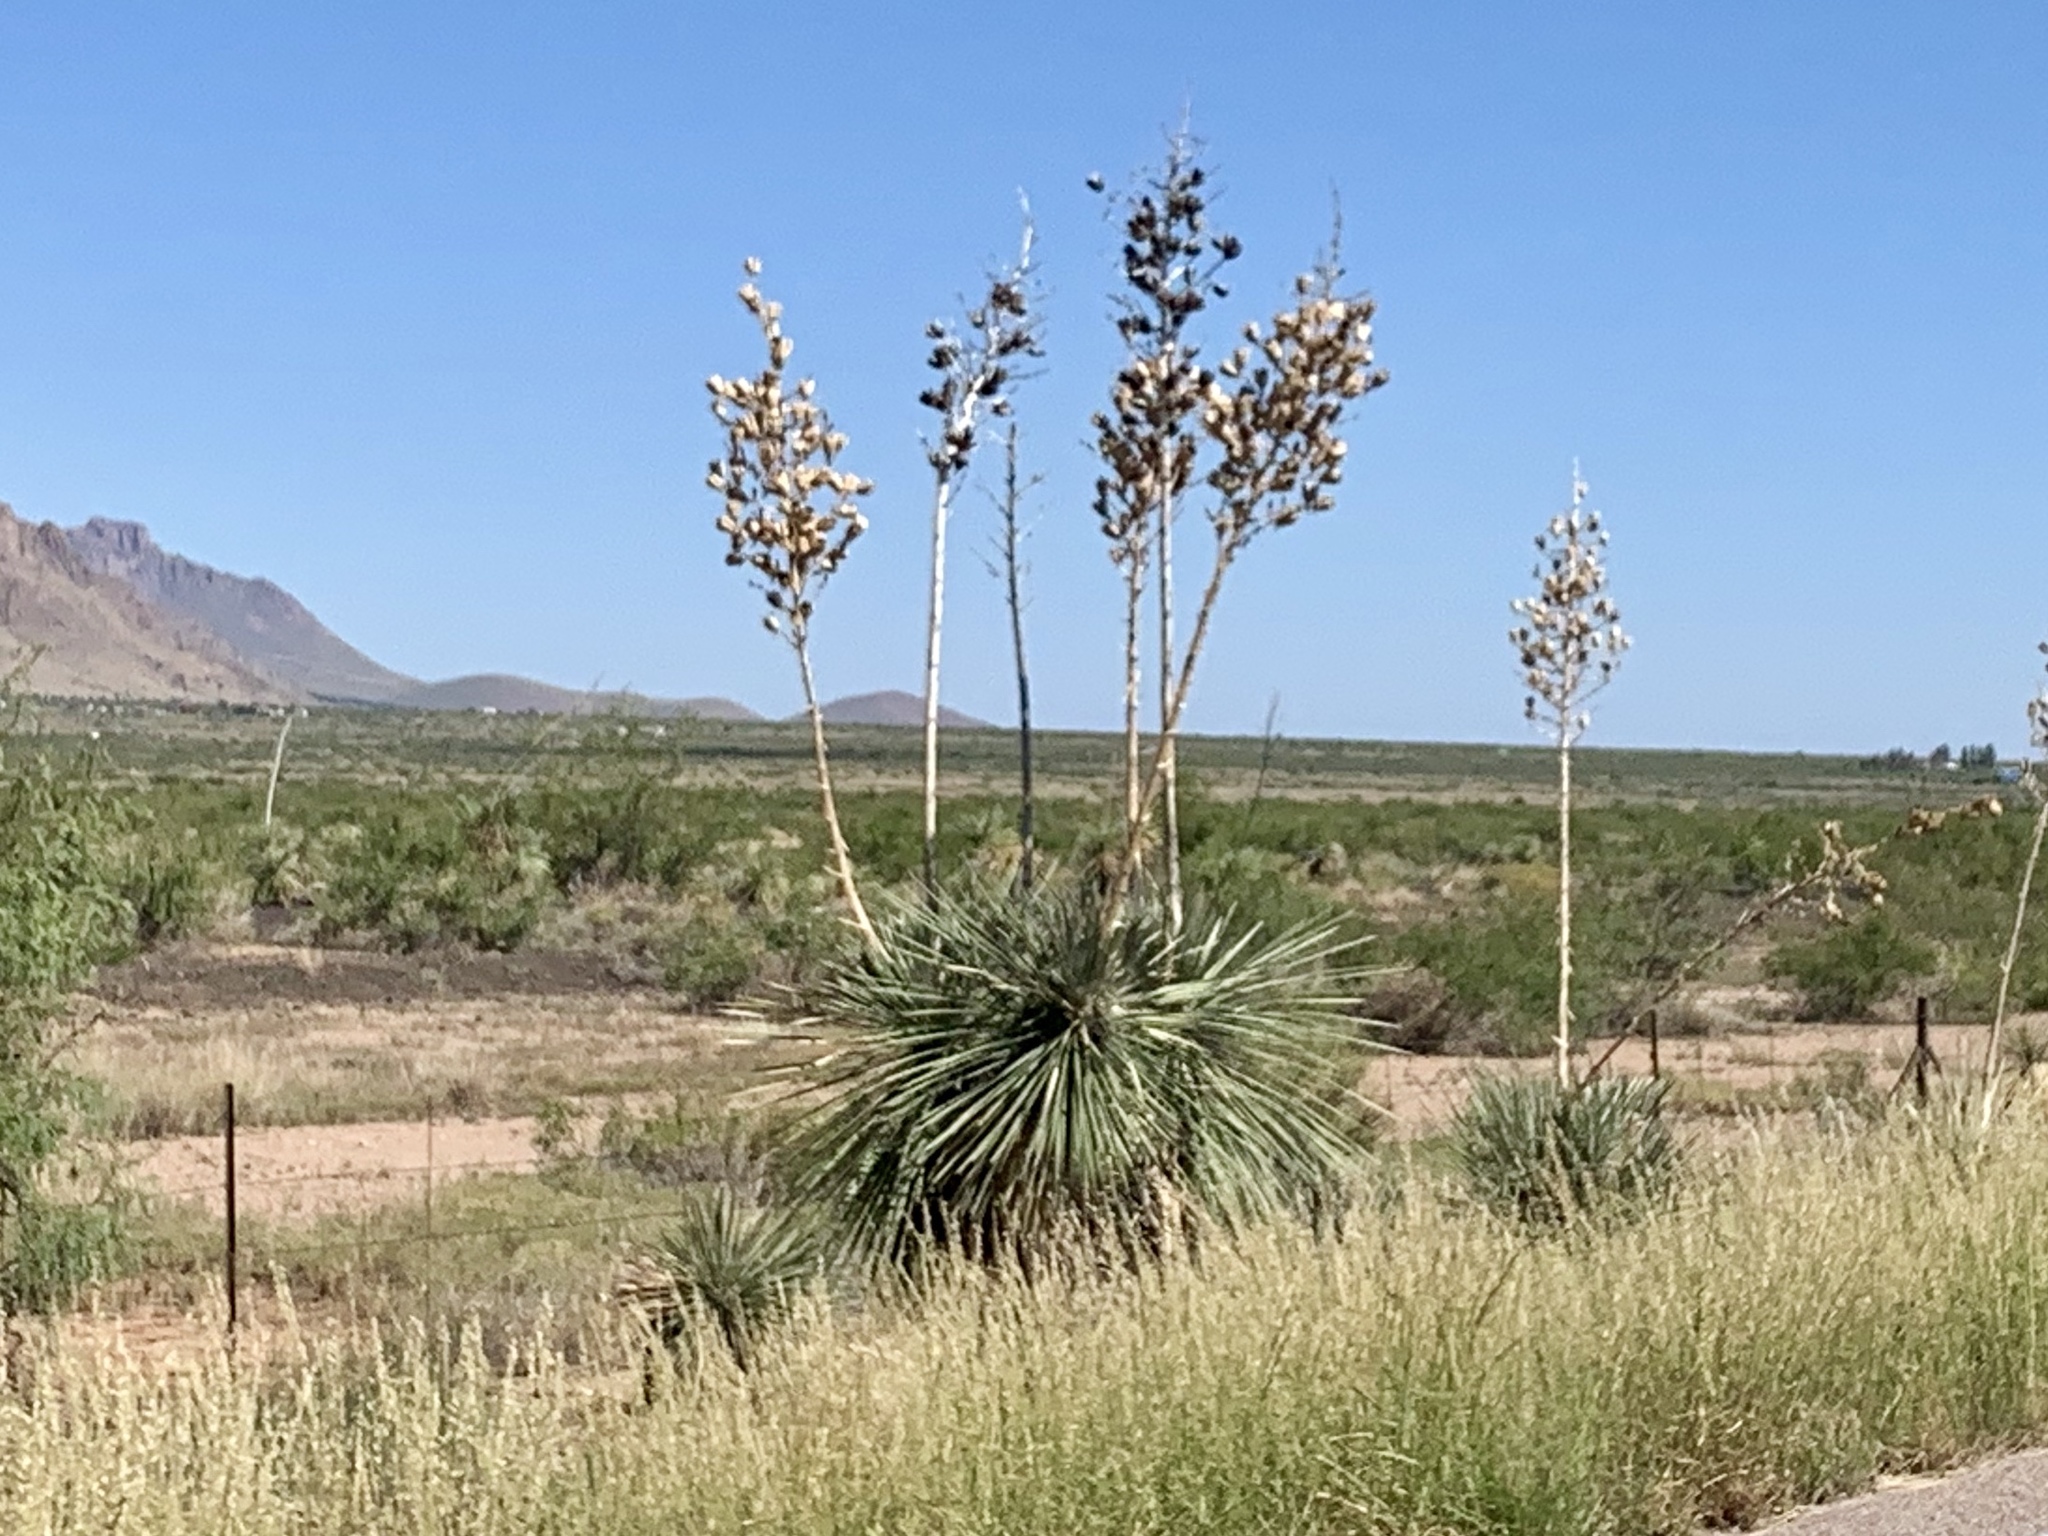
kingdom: Plantae
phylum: Tracheophyta
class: Liliopsida
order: Asparagales
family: Asparagaceae
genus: Yucca
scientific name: Yucca elata
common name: Palmella
